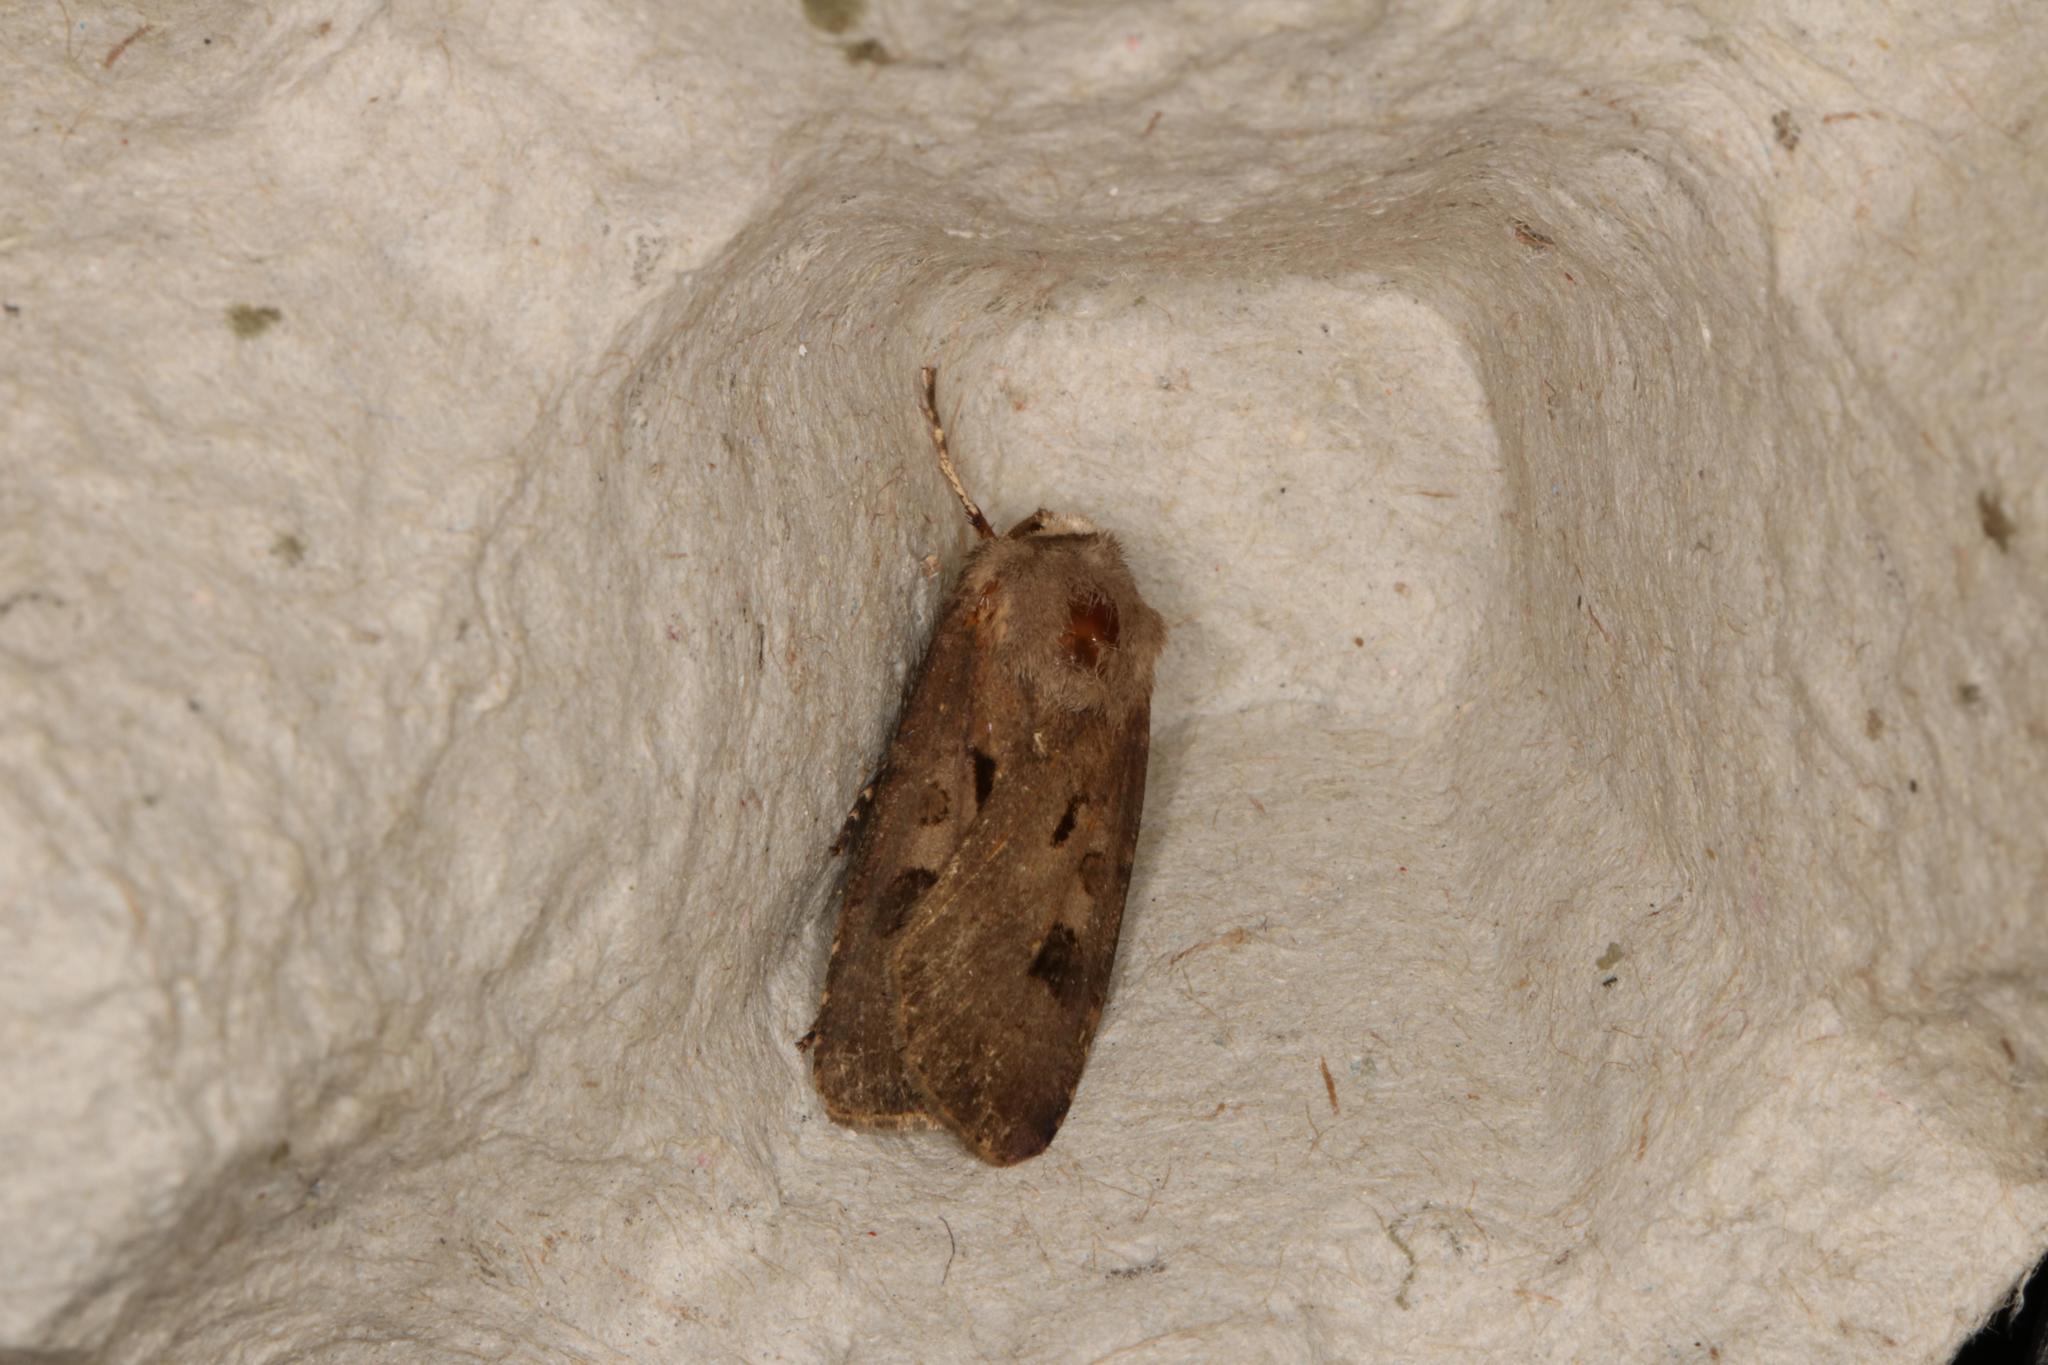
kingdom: Animalia
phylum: Arthropoda
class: Insecta
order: Lepidoptera
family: Noctuidae
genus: Agrotis
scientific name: Agrotis exclamationis
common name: Heart and dart
